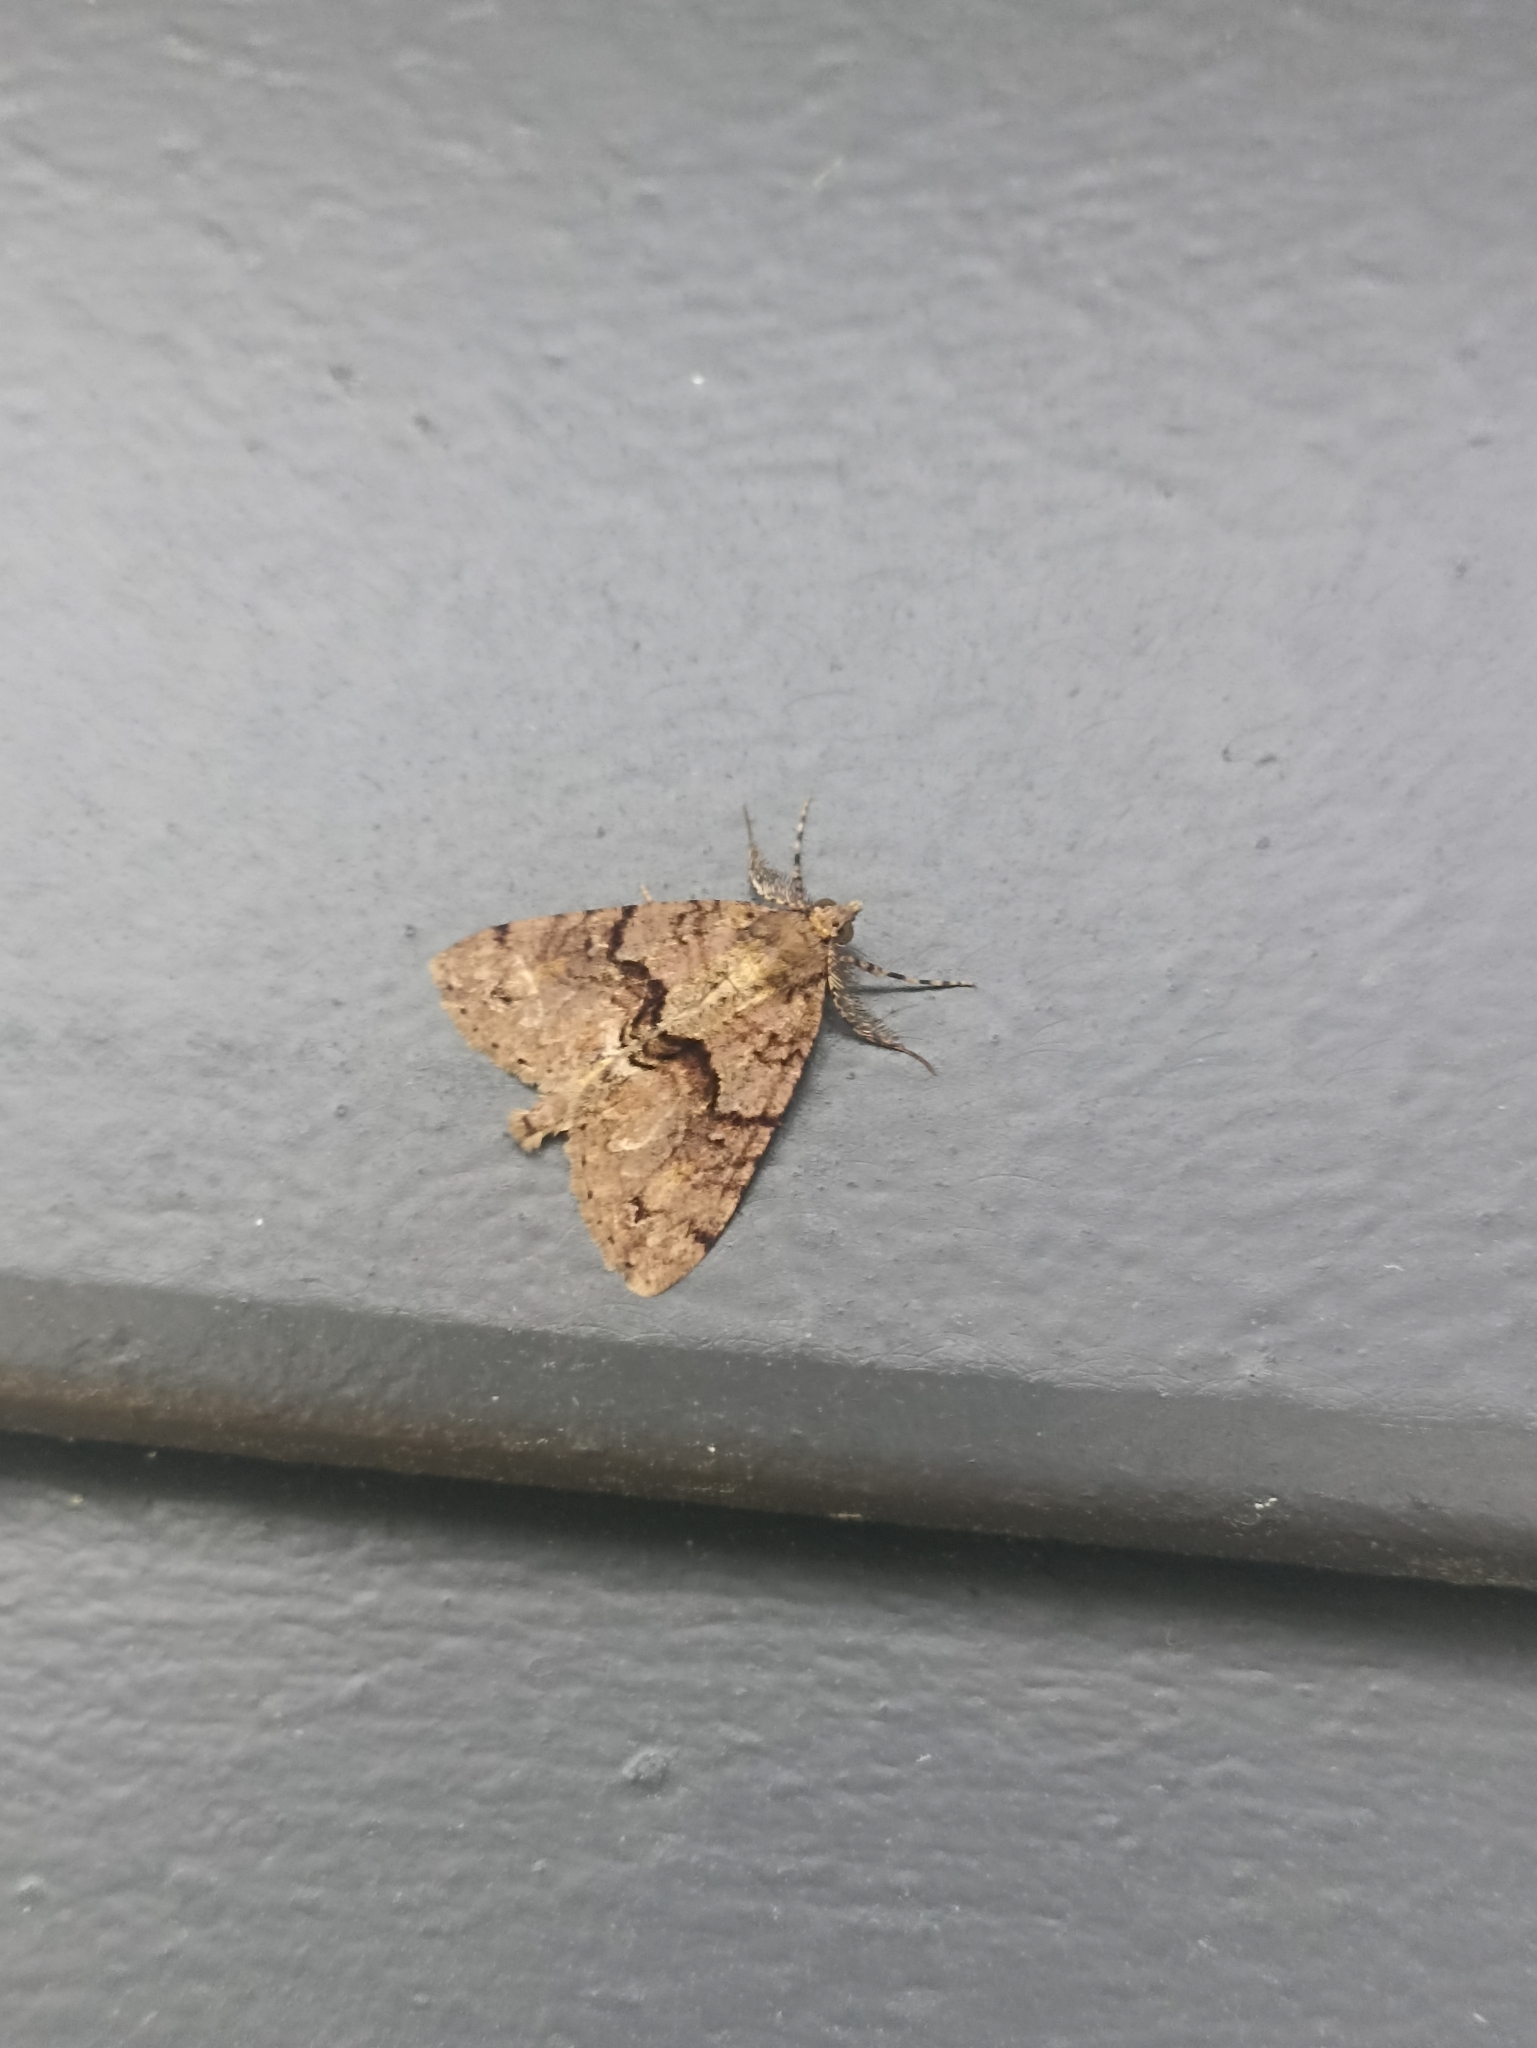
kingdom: Animalia
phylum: Arthropoda
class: Insecta
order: Lepidoptera
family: Geometridae
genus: Pseudocoremia
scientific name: Pseudocoremia suavis
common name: Common forest looper
